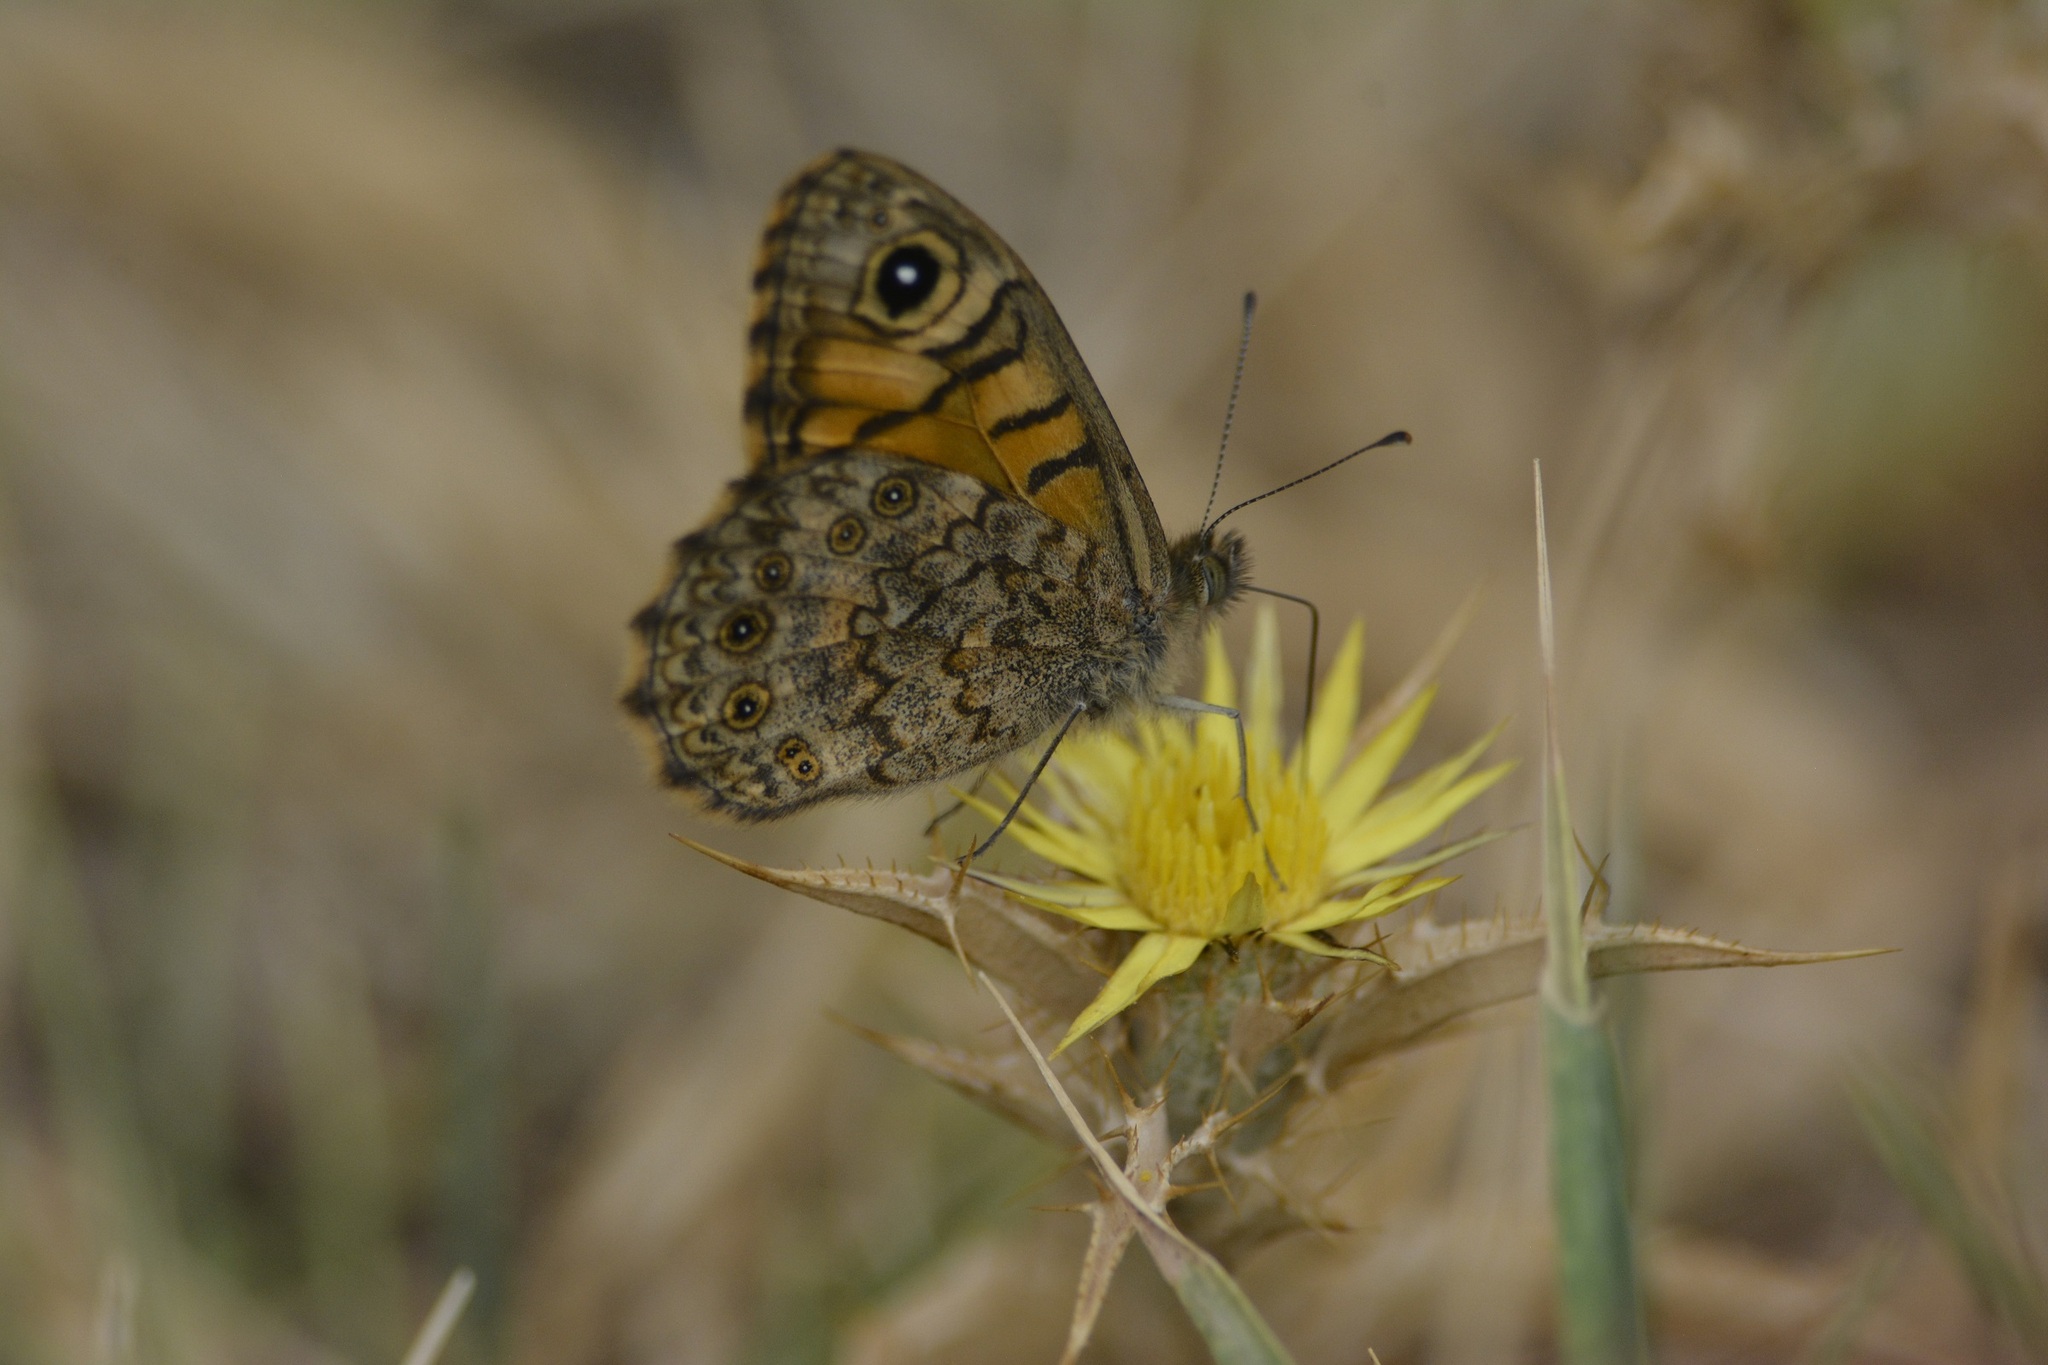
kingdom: Animalia
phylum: Arthropoda
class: Insecta
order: Lepidoptera
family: Nymphalidae
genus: Pararge
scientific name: Pararge Lasiommata megera
